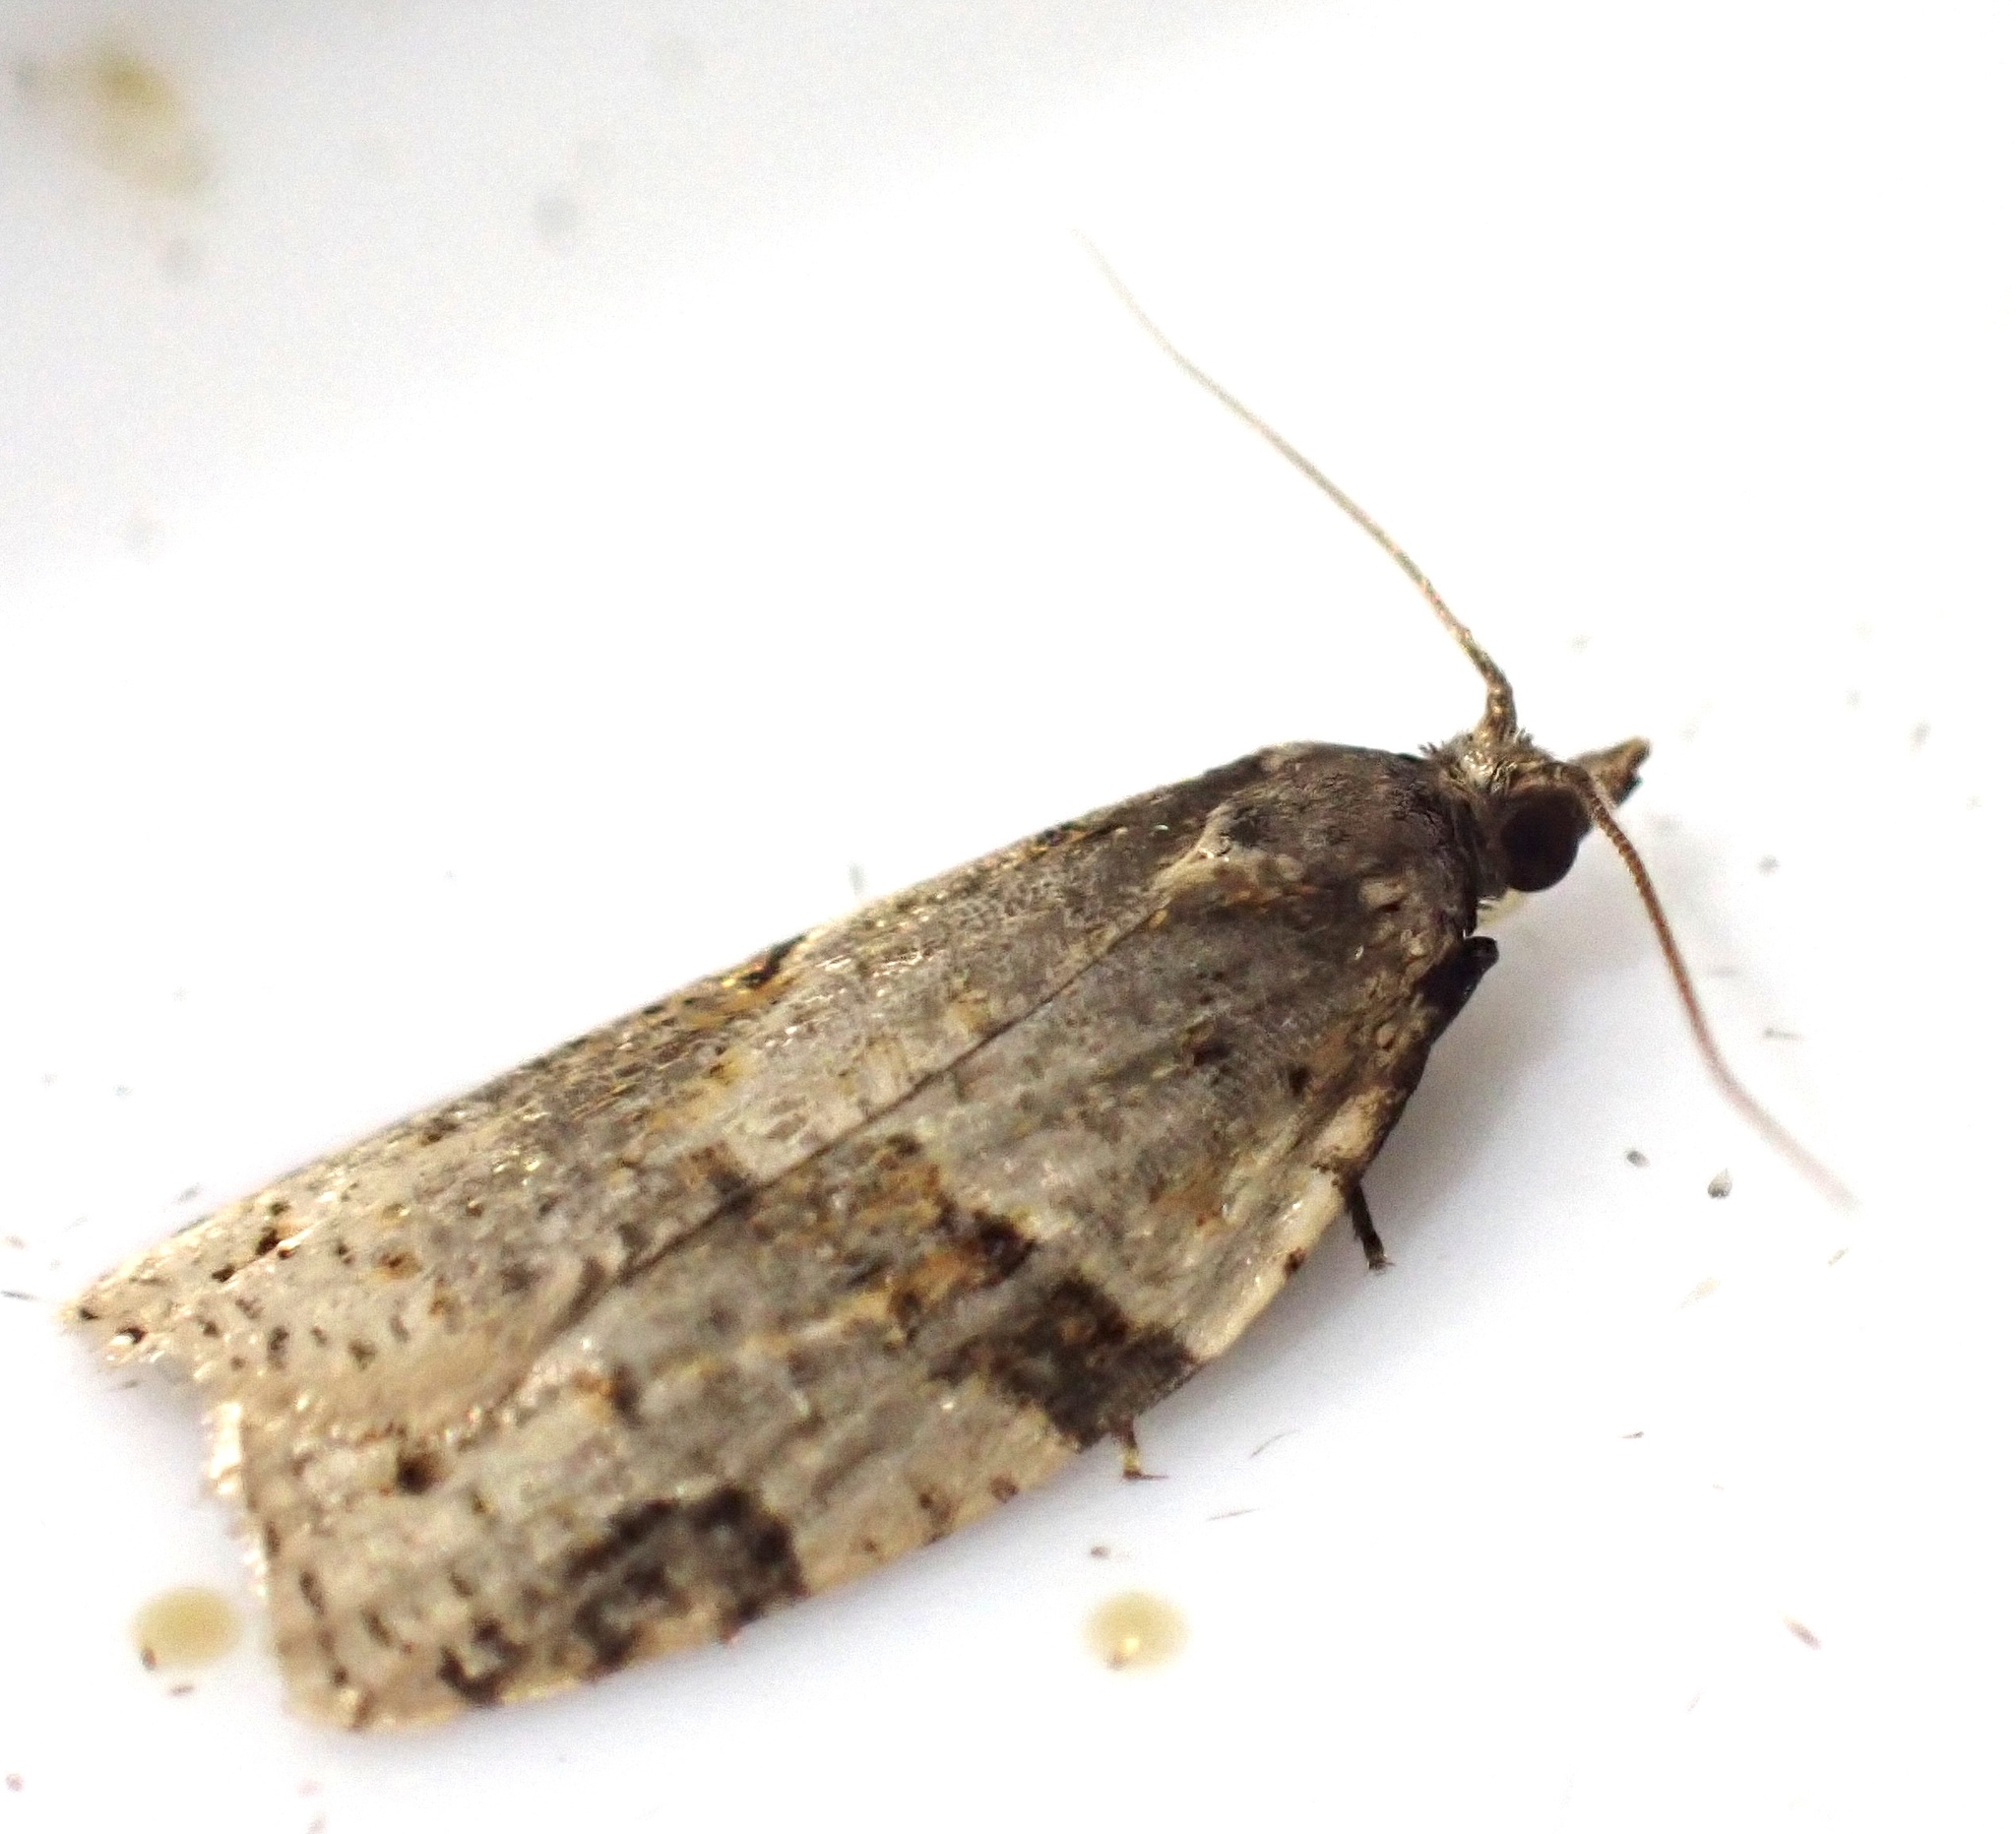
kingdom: Animalia
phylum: Arthropoda
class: Insecta
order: Lepidoptera
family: Tortricidae
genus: Clepsis
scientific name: Clepsis spectrana
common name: Cyclamen tortrix
